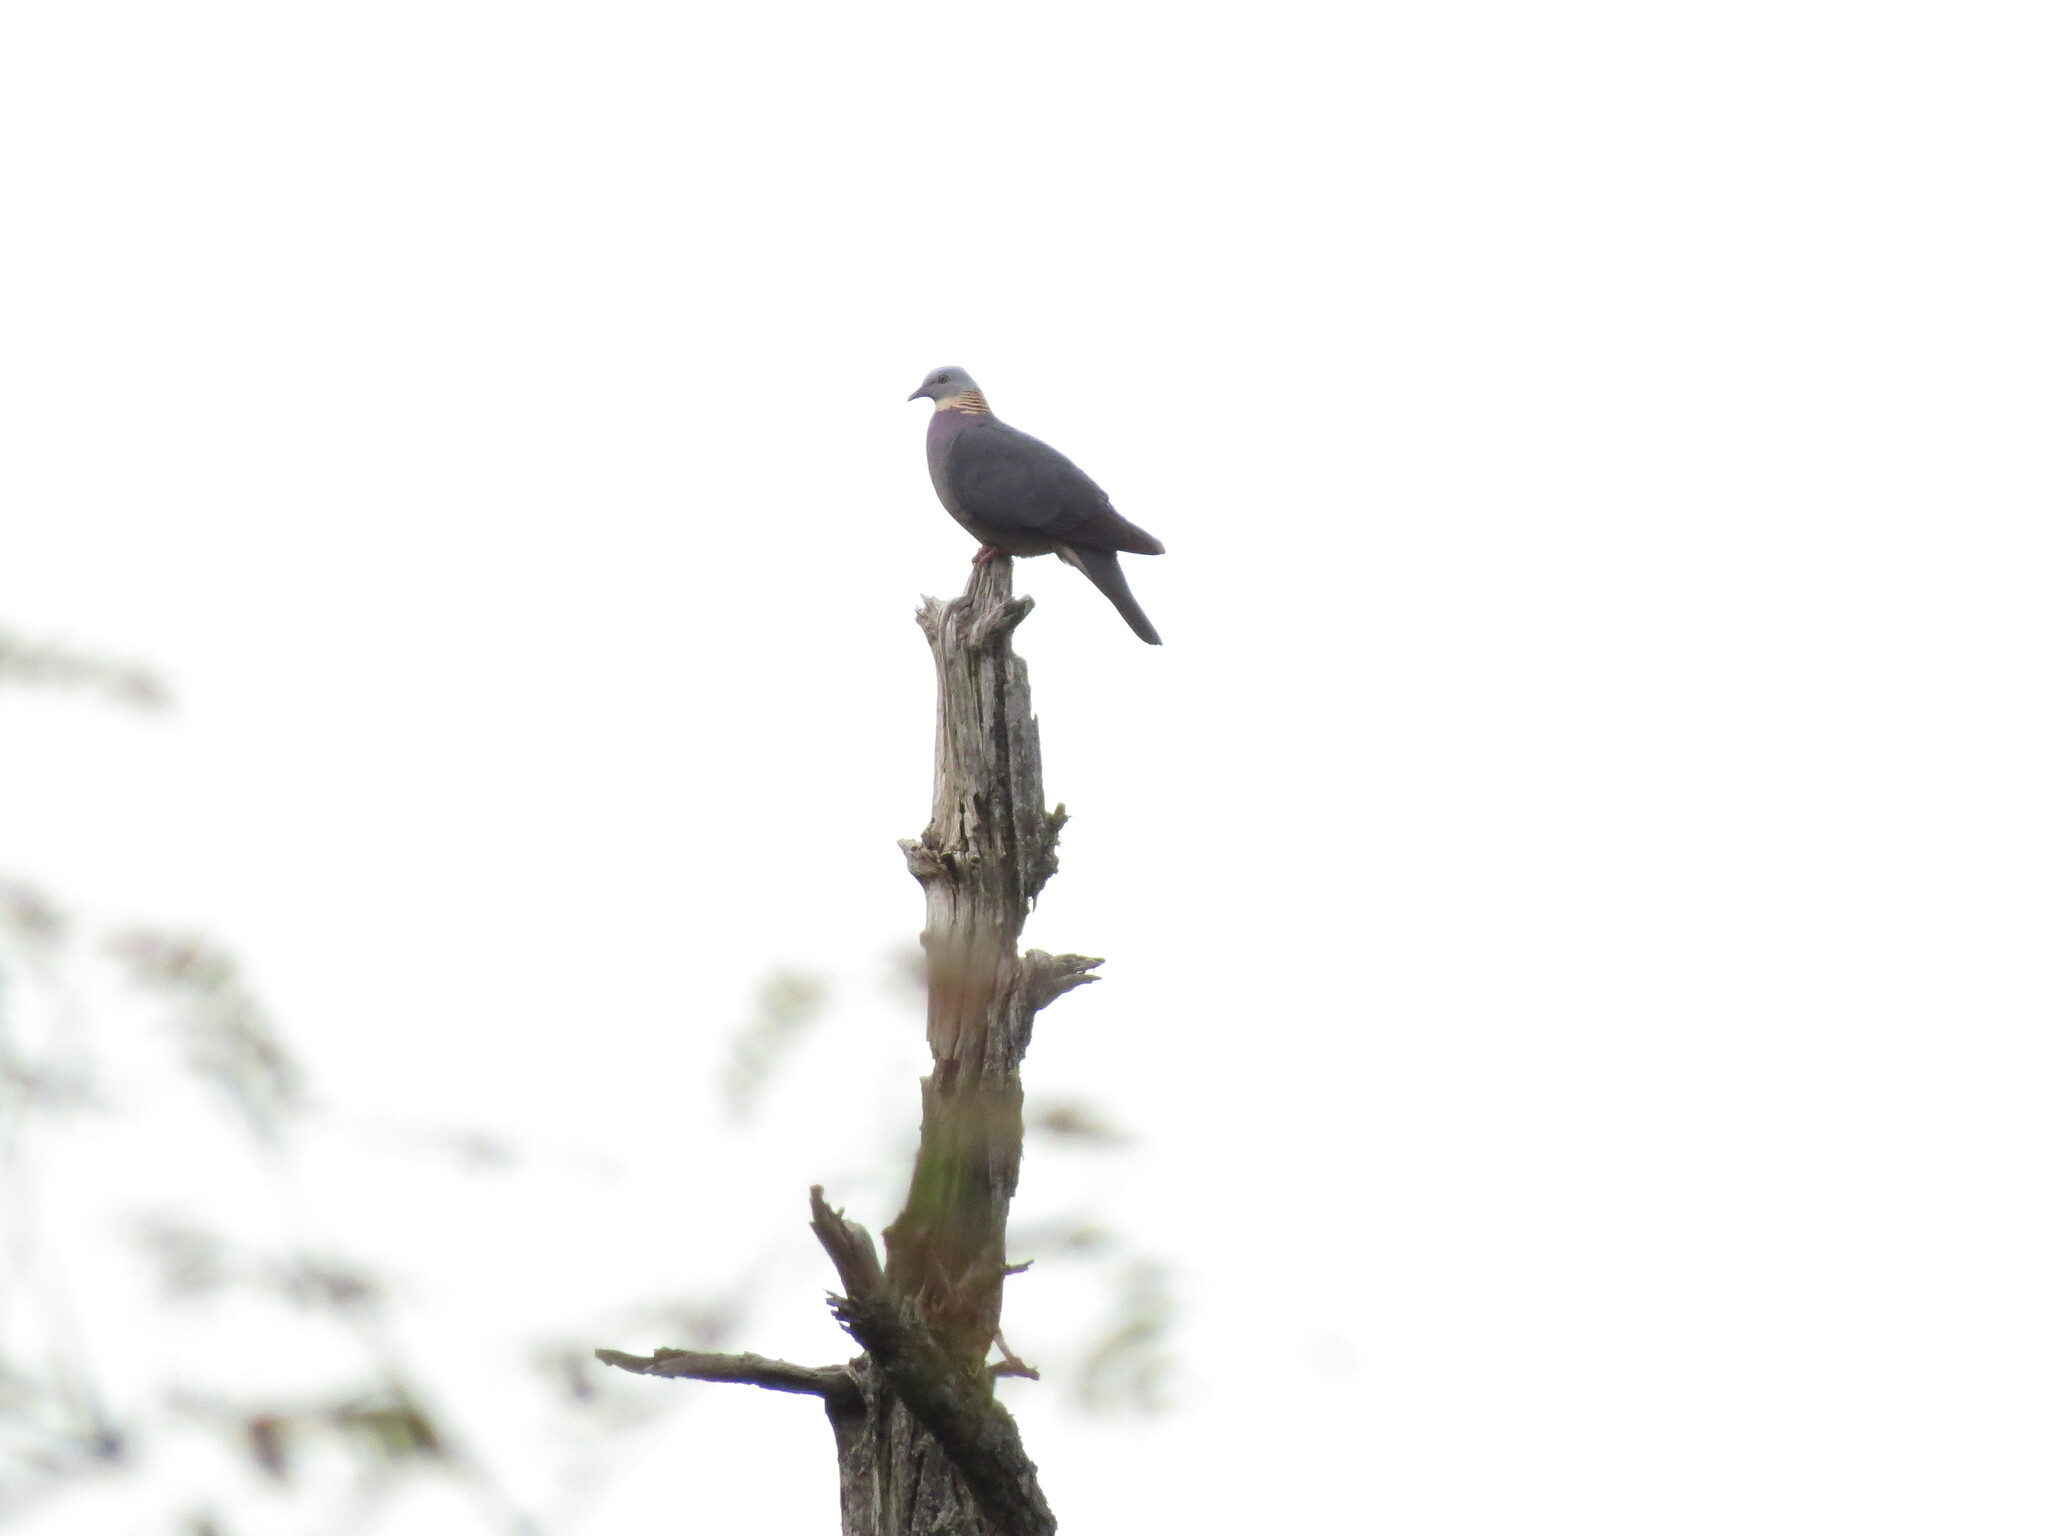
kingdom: Animalia
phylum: Chordata
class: Aves
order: Columbiformes
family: Columbidae
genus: Columba
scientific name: Columba pulchricollis
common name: Ashy wood pigeon
